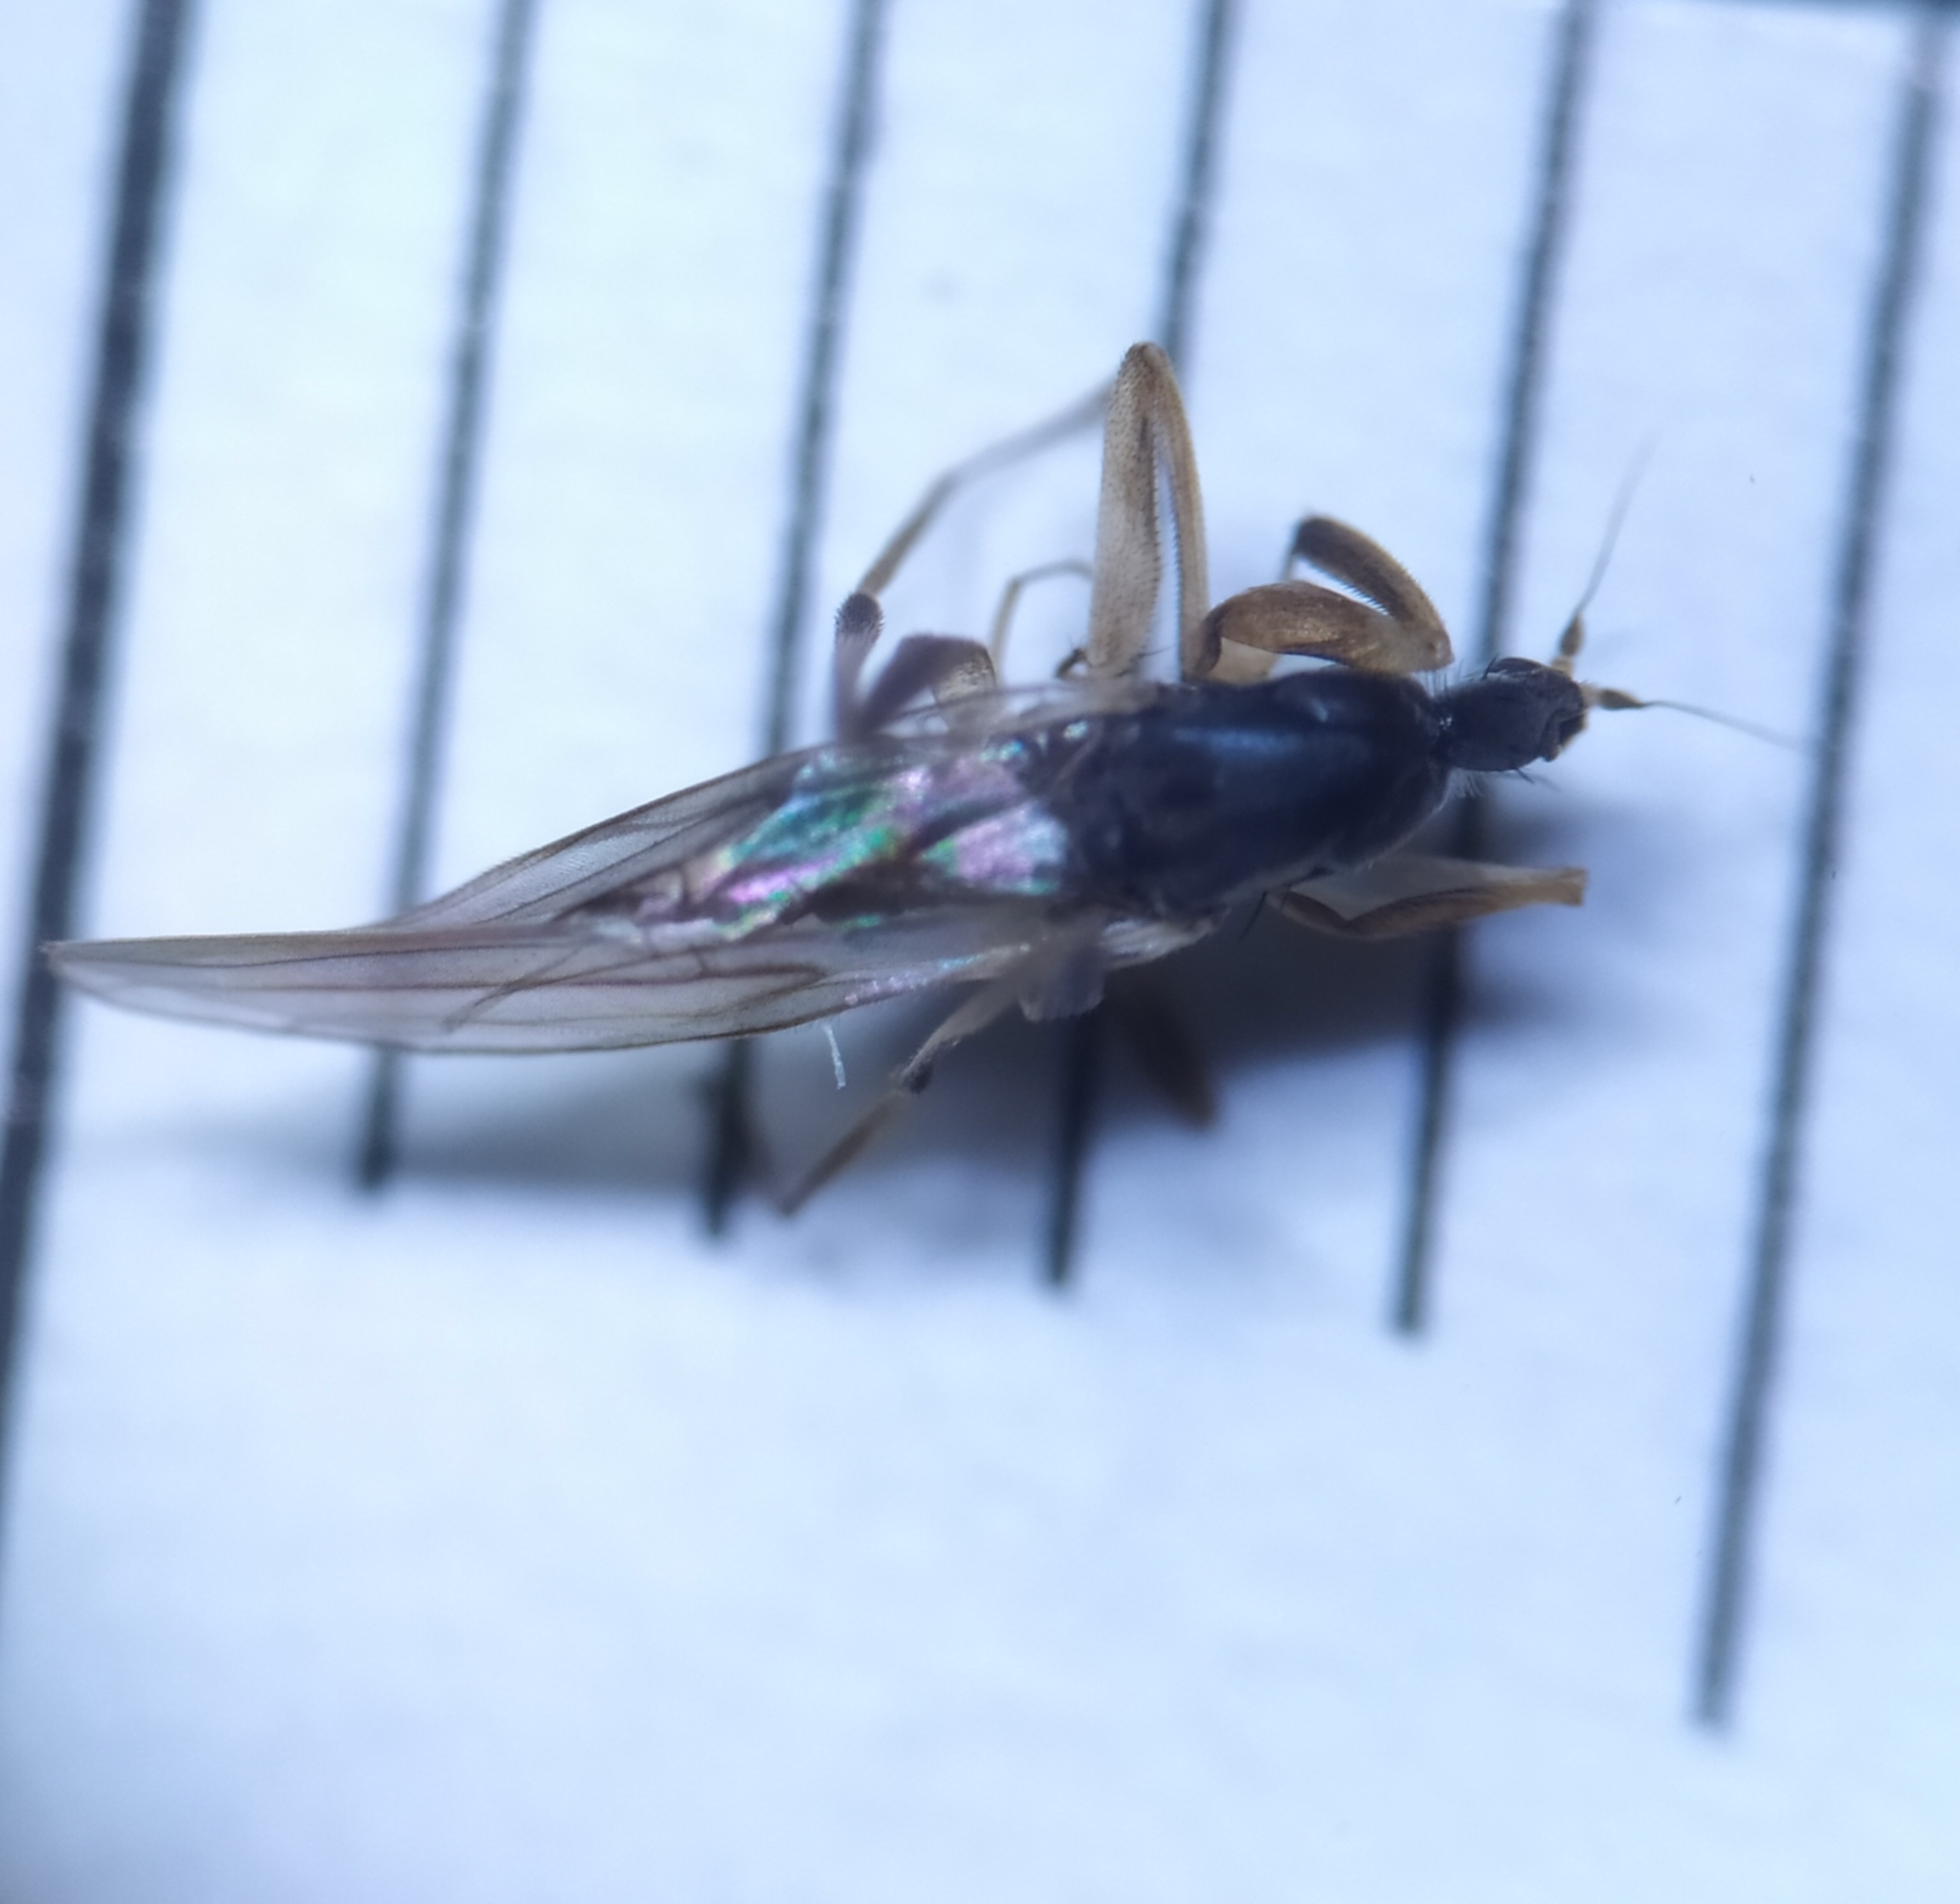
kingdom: Animalia
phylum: Arthropoda
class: Insecta
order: Diptera
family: Hybotidae
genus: Tachypeza
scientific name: Tachypeza nubila
